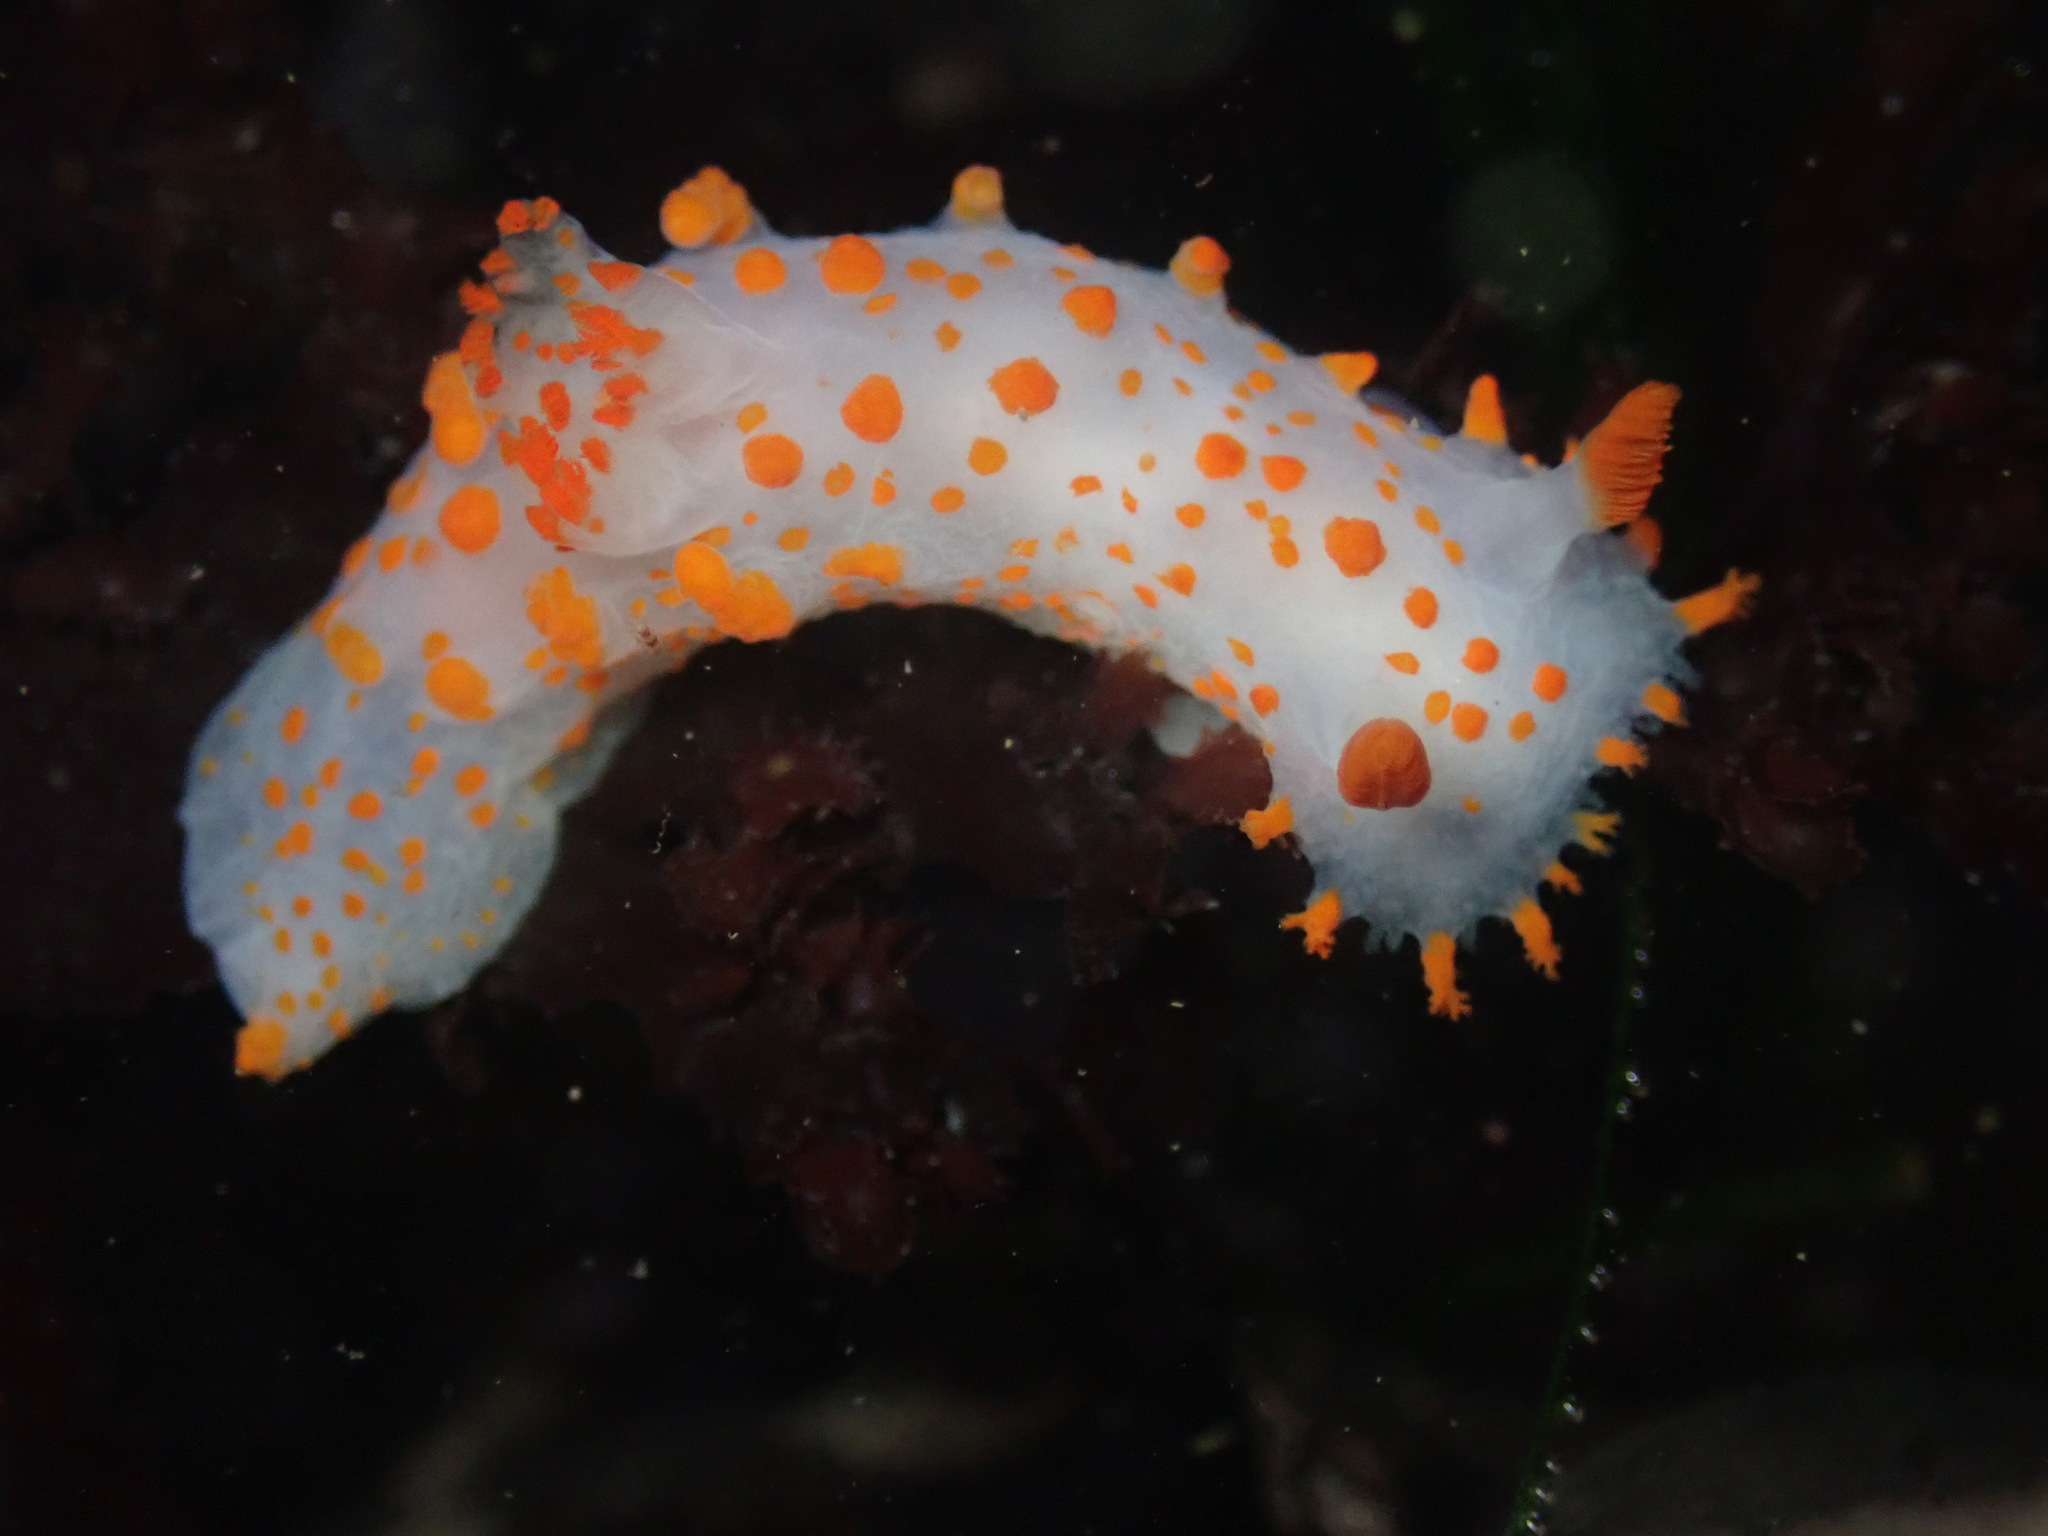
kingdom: Animalia
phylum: Mollusca
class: Gastropoda
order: Nudibranchia
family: Polyceridae
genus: Triopha
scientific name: Triopha catalinae
